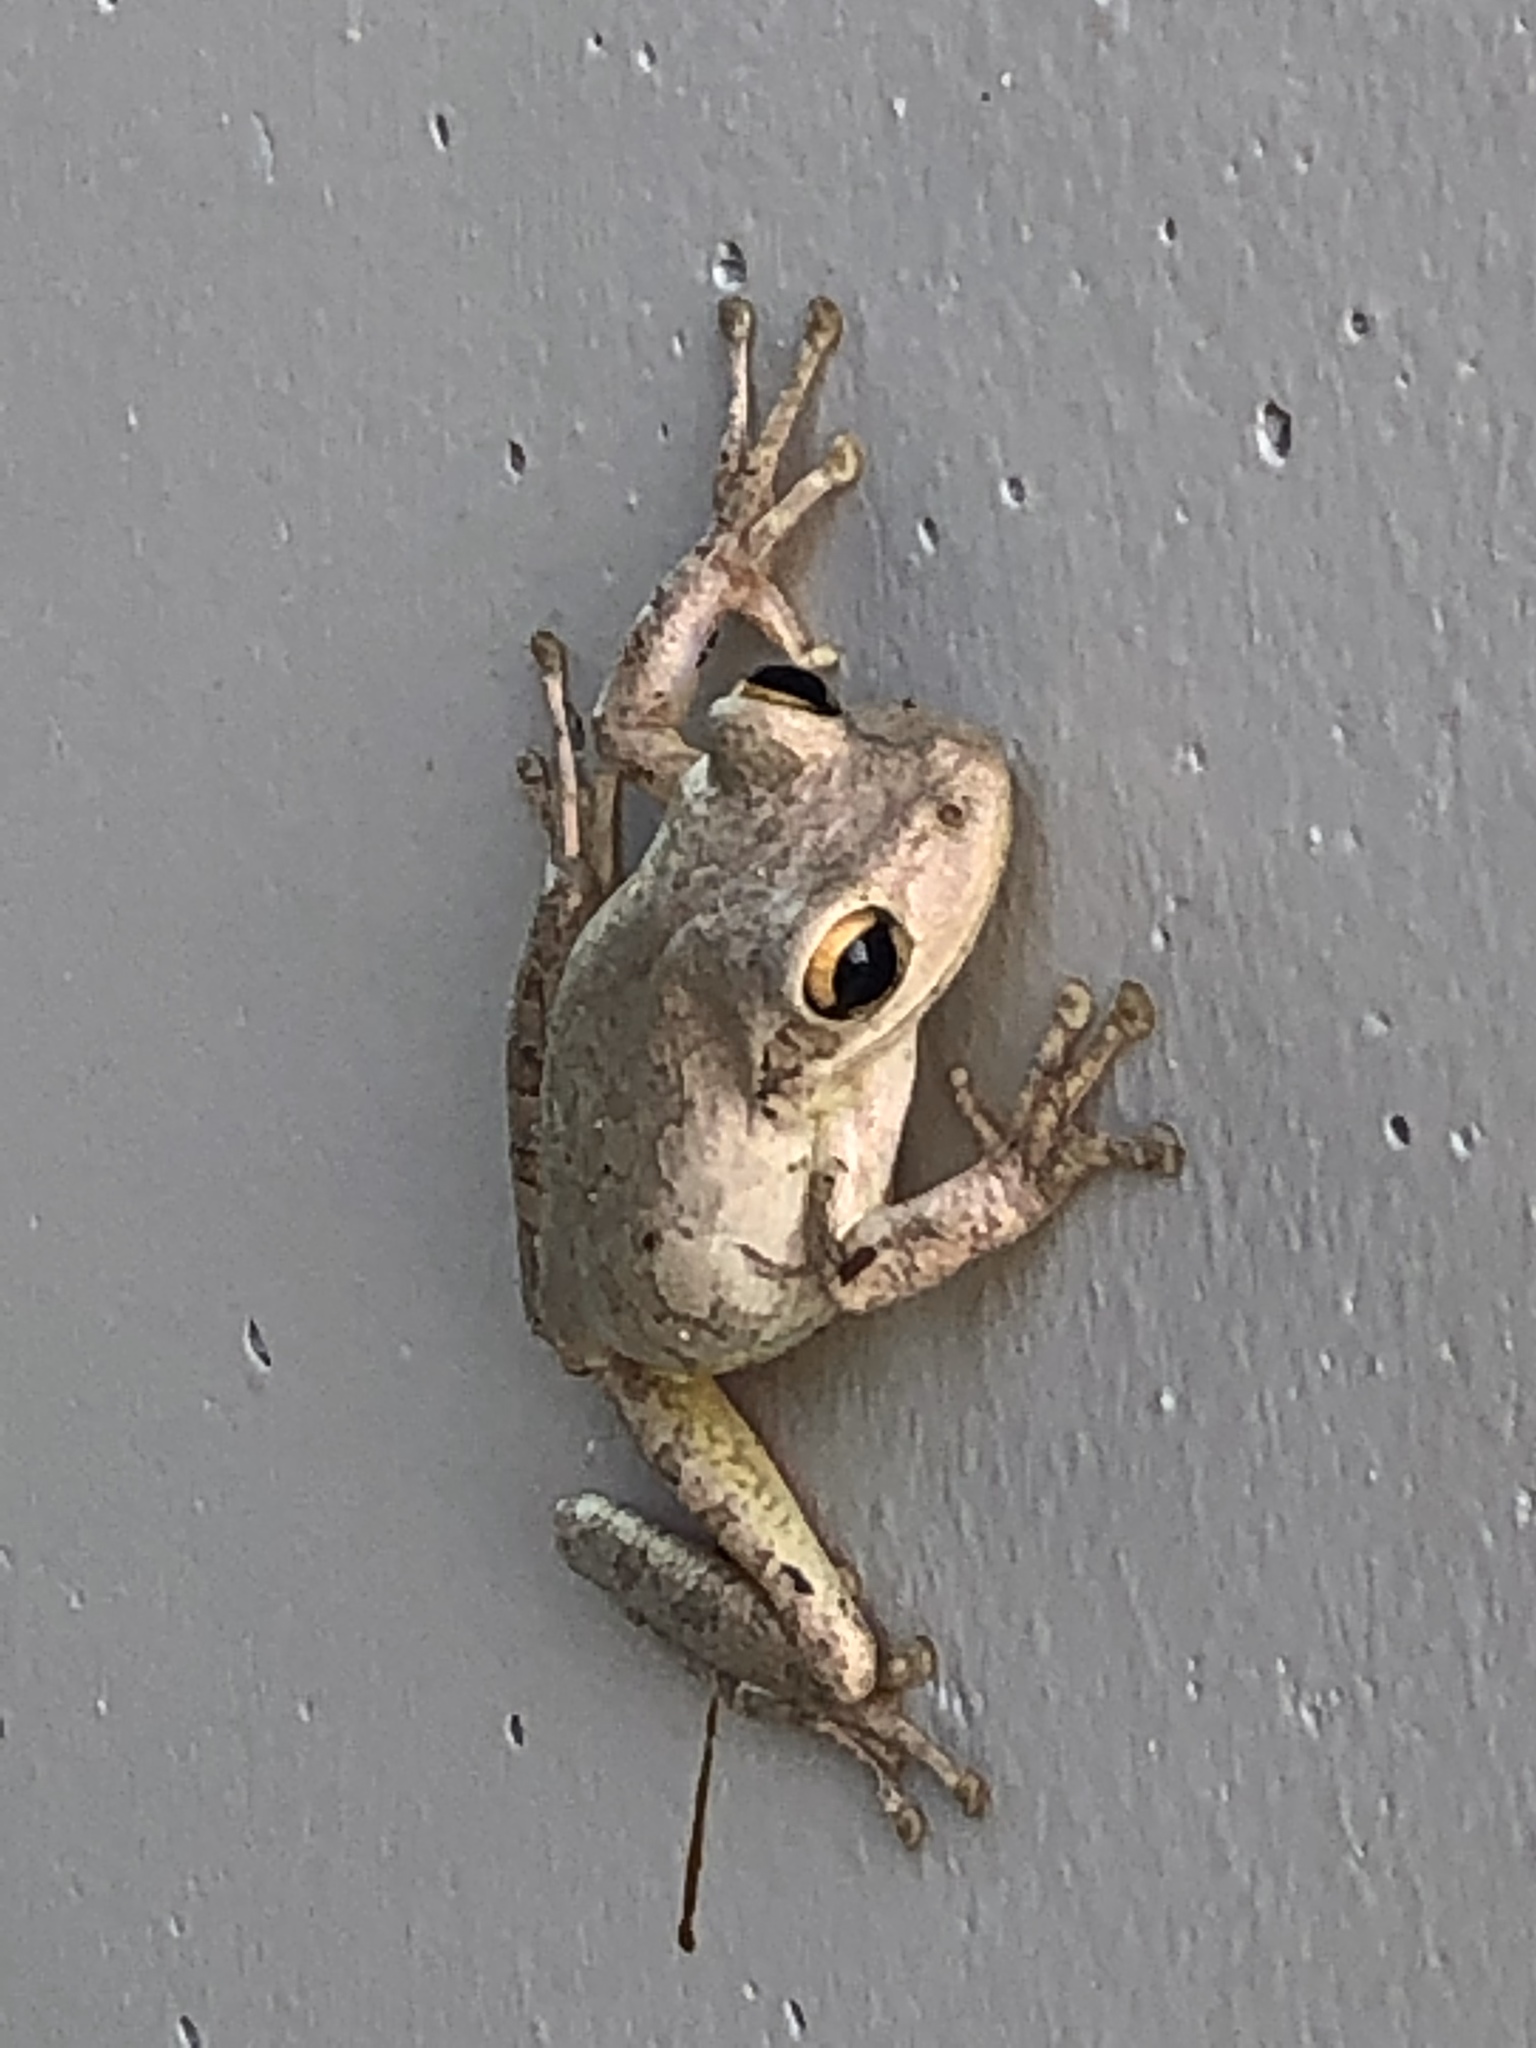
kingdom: Animalia
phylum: Chordata
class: Amphibia
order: Anura
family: Hylidae
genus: Osteopilus
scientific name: Osteopilus septentrionalis
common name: Cuban treefrog
